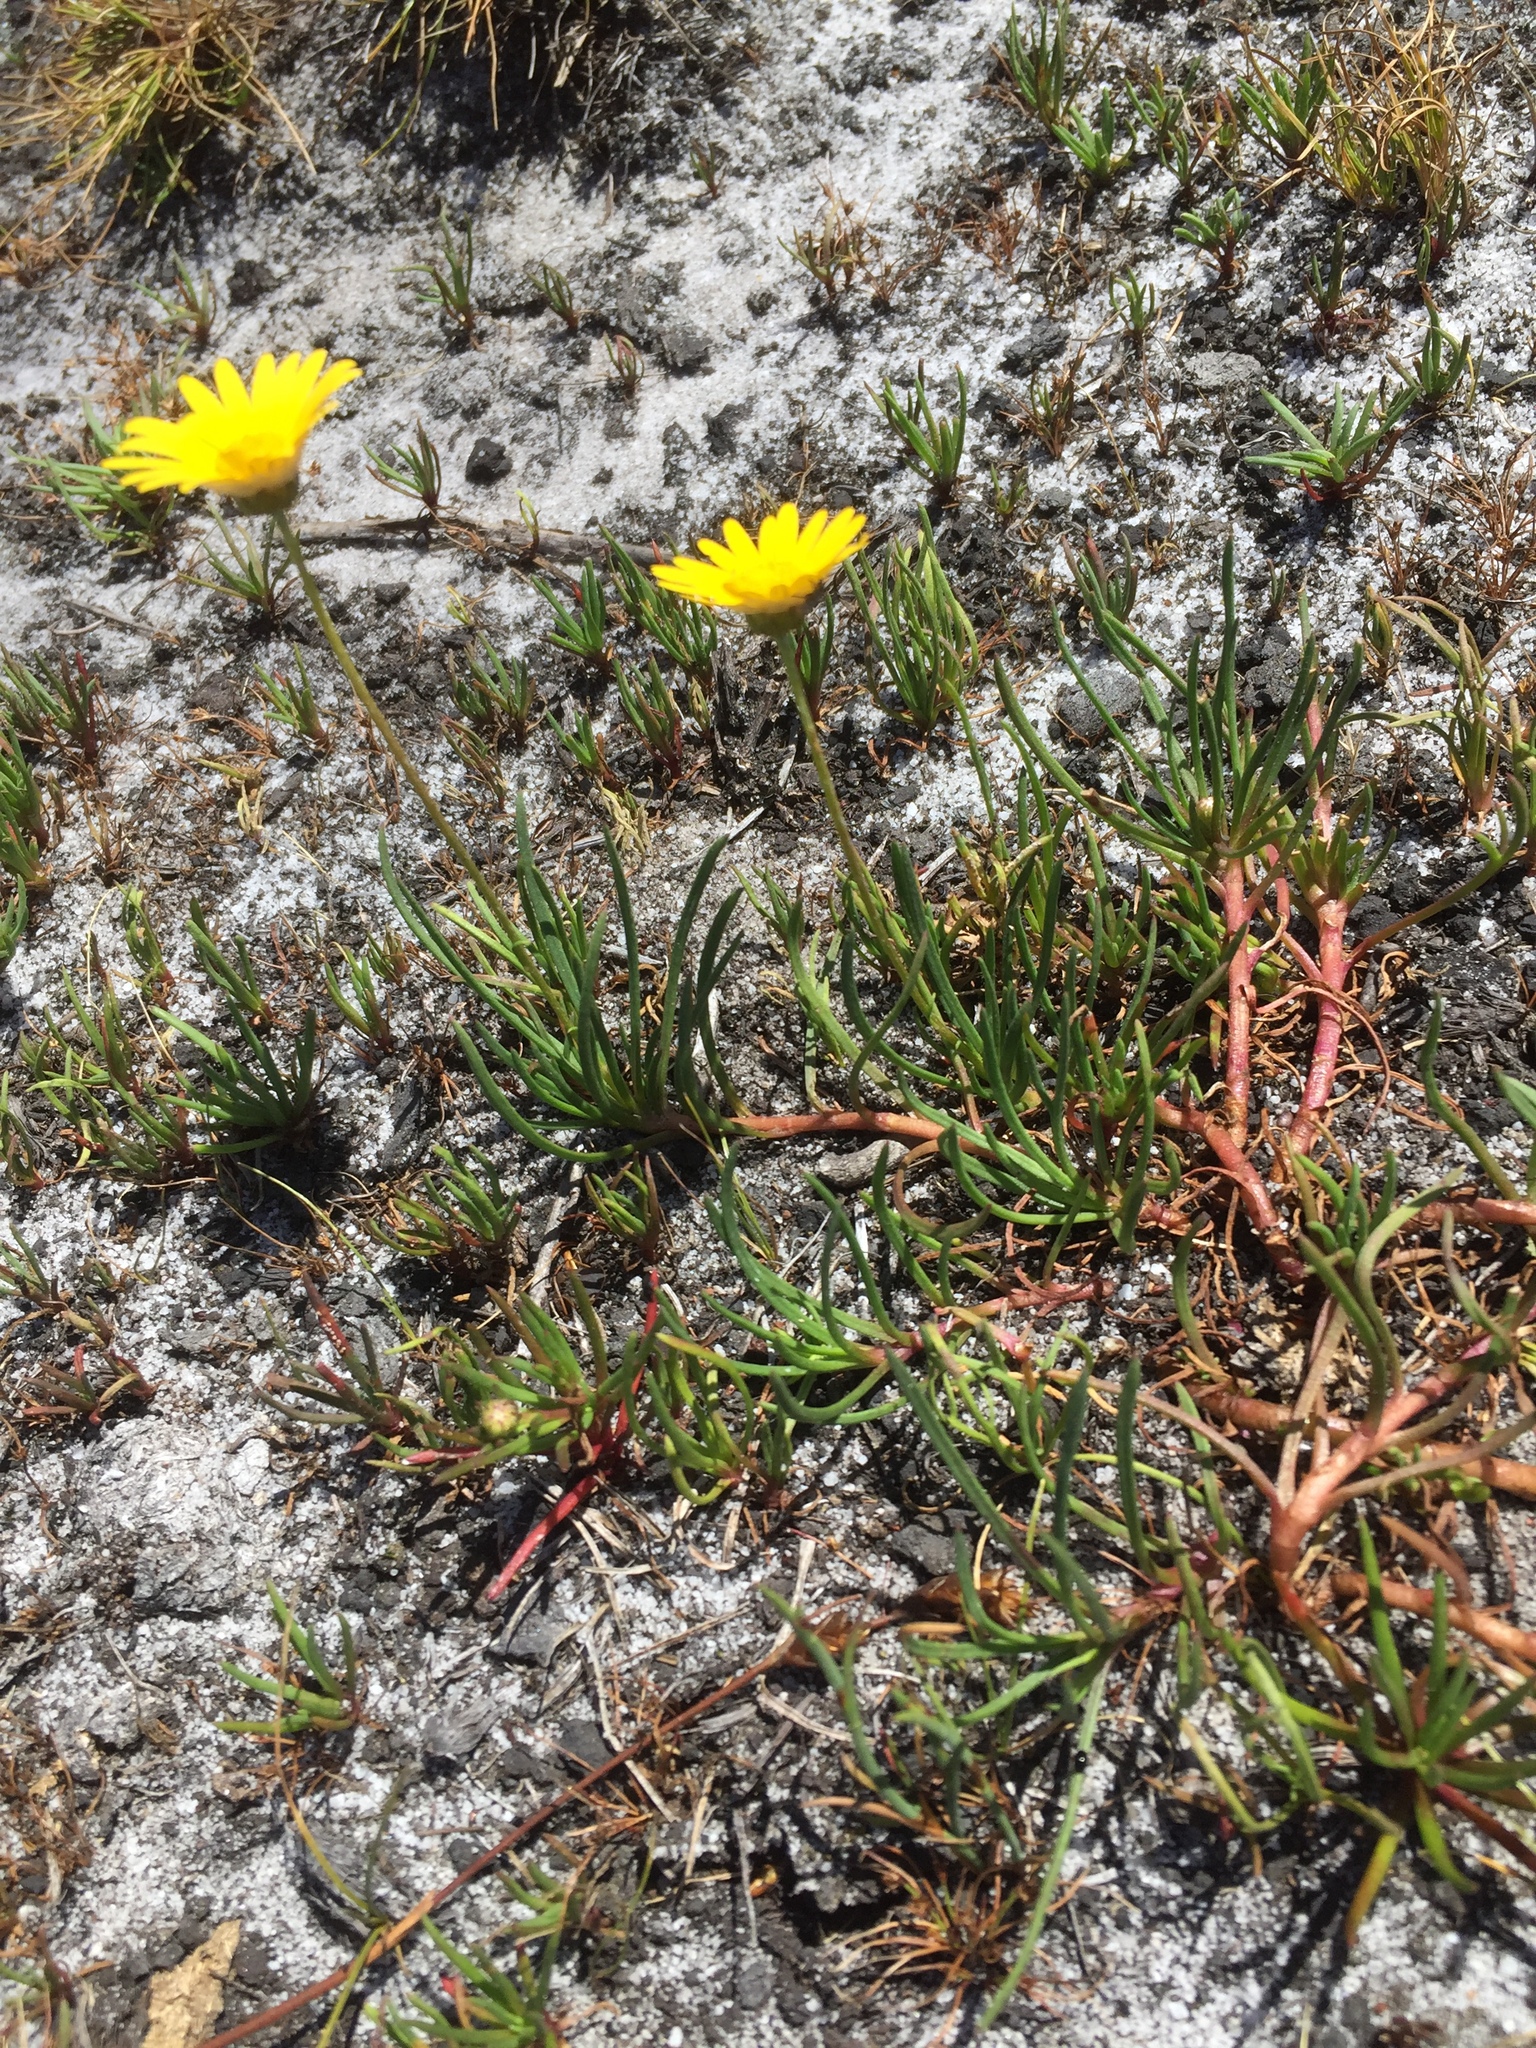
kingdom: Plantae
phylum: Tracheophyta
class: Magnoliopsida
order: Asterales
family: Asteraceae
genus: Ursinia
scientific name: Ursinia tenuifolia
